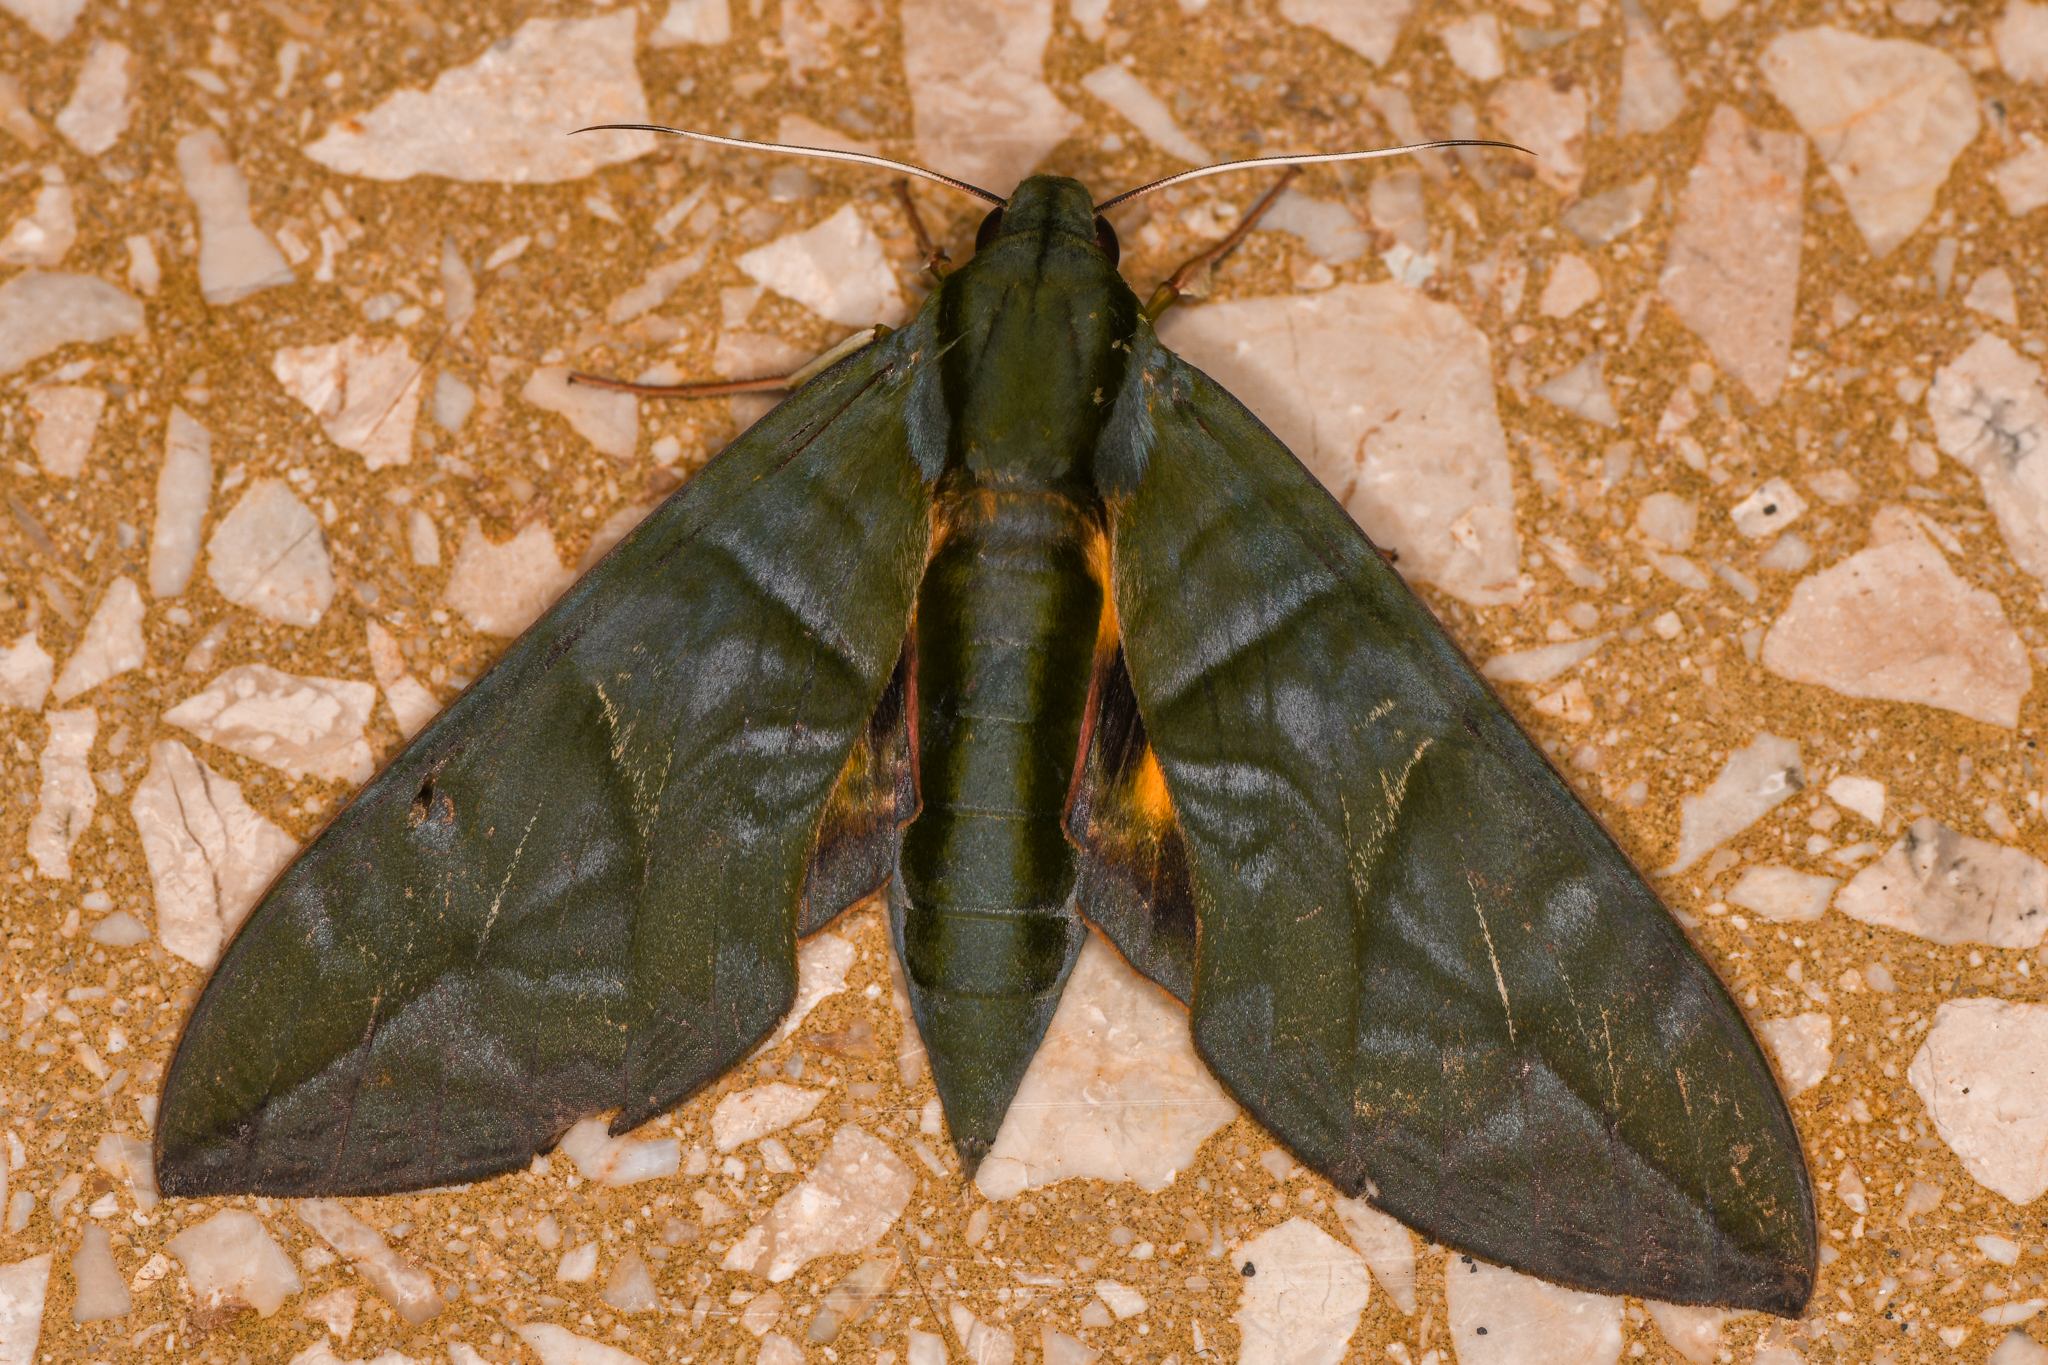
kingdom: Animalia
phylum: Arthropoda
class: Insecta
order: Lepidoptera
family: Sphingidae
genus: Eumorpha
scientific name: Eumorpha phorbas
